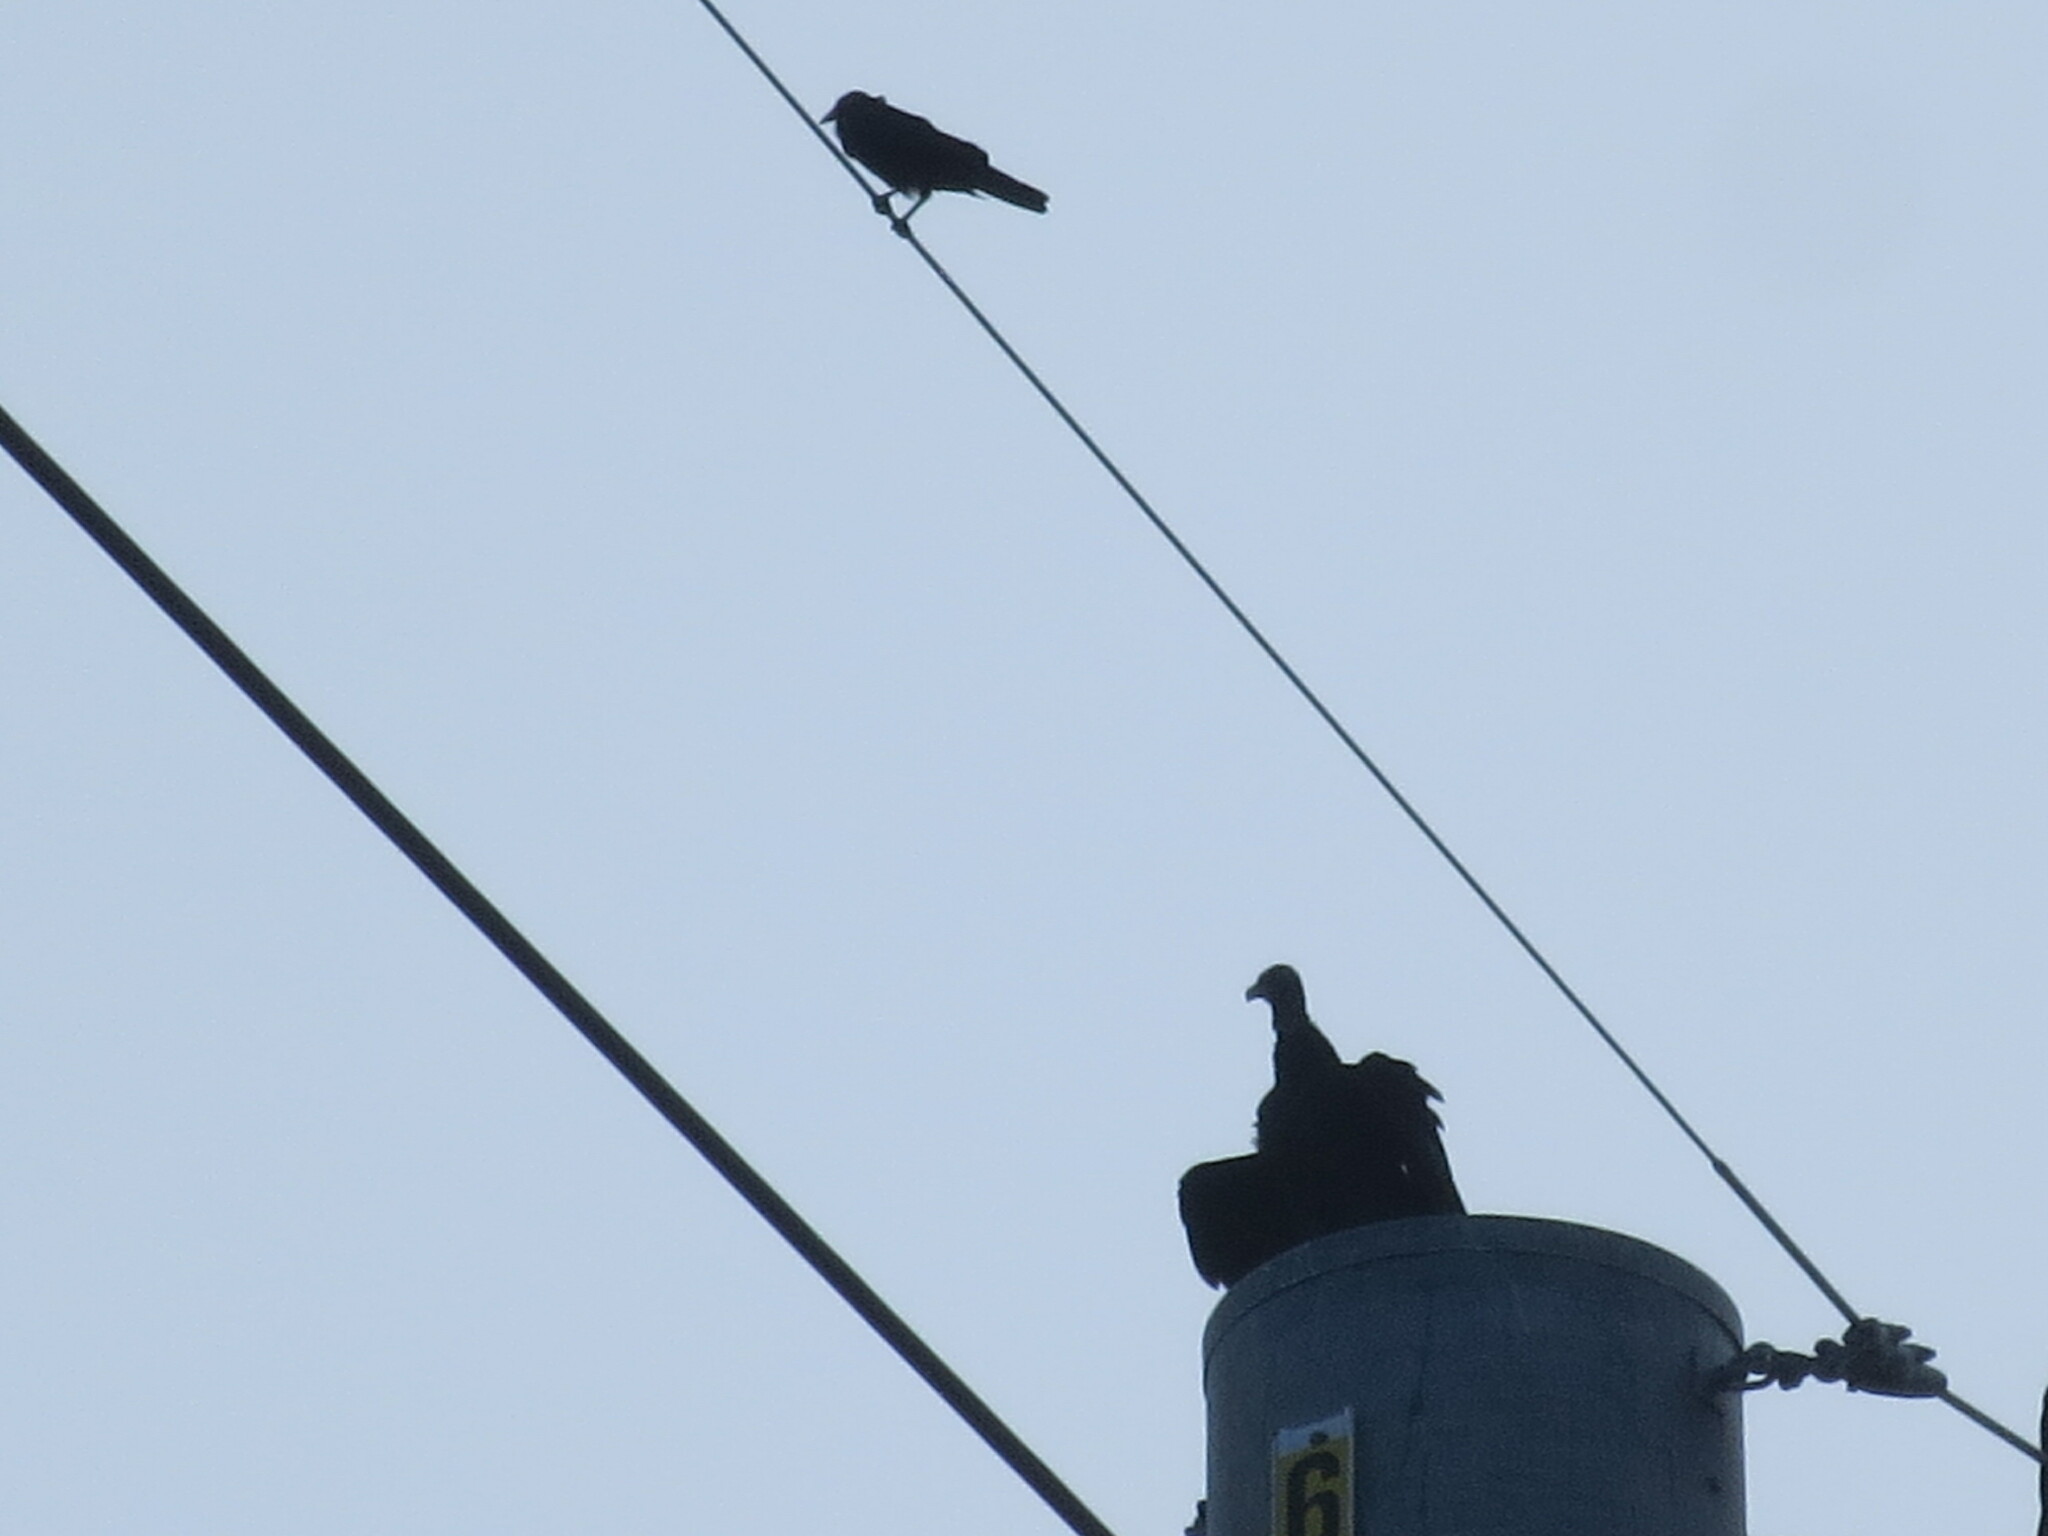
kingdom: Animalia
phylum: Chordata
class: Aves
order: Accipitriformes
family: Cathartidae
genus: Cathartes
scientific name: Cathartes aura
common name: Turkey vulture
